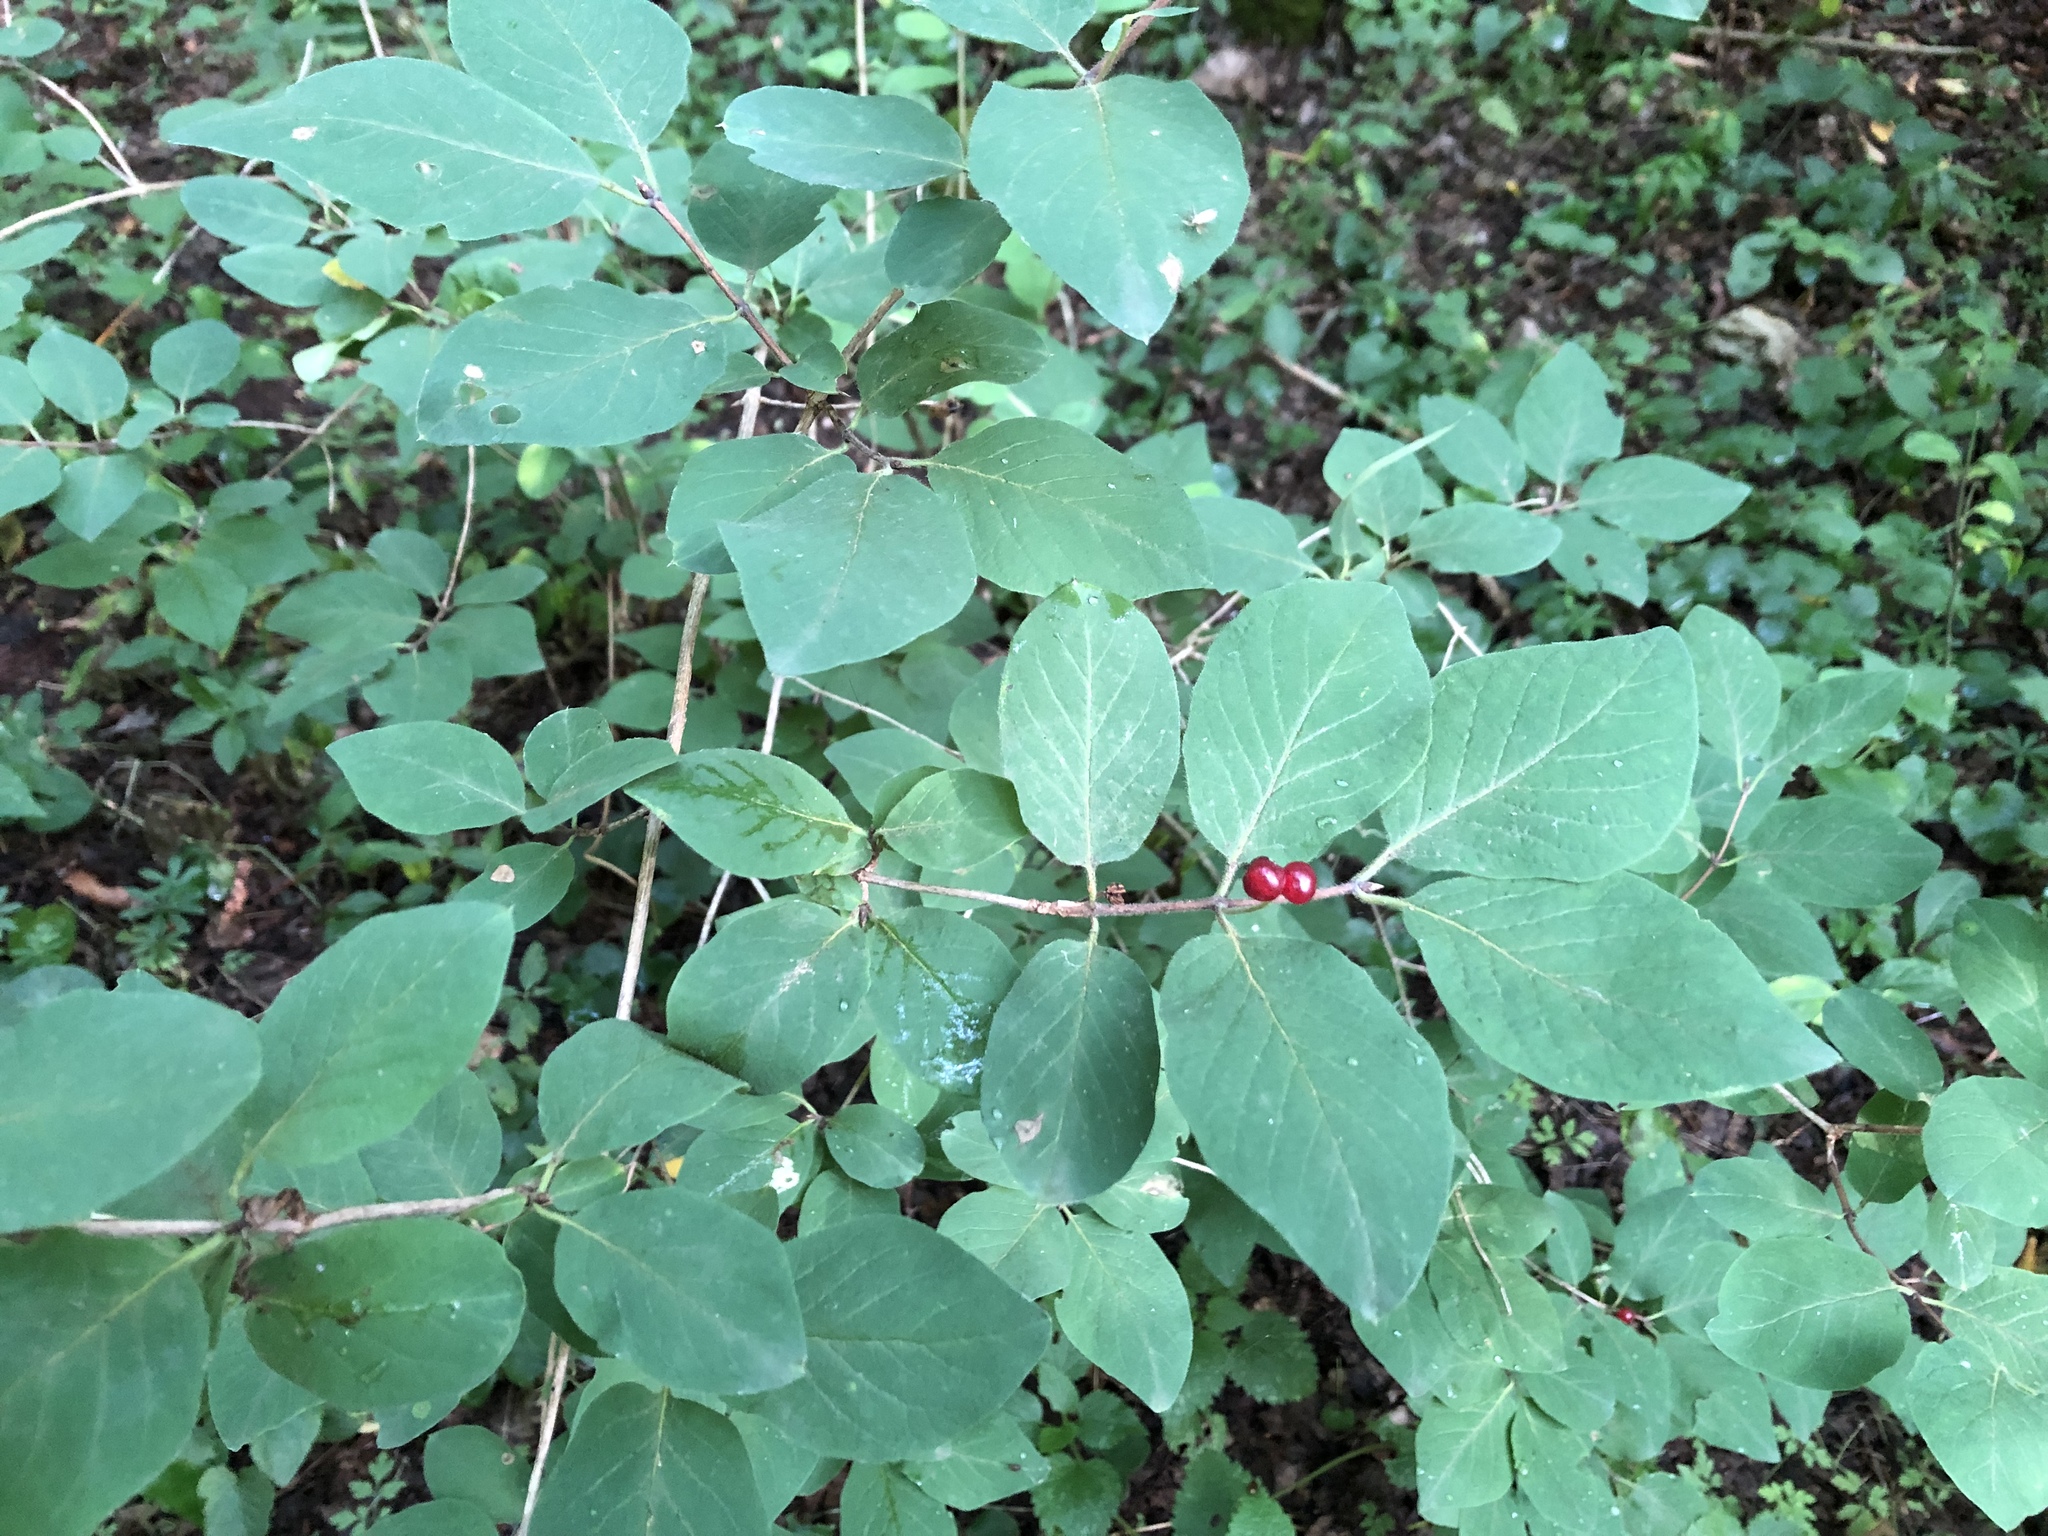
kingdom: Plantae
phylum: Tracheophyta
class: Magnoliopsida
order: Dipsacales
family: Caprifoliaceae
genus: Lonicera
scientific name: Lonicera xylosteum
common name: Fly honeysuckle
